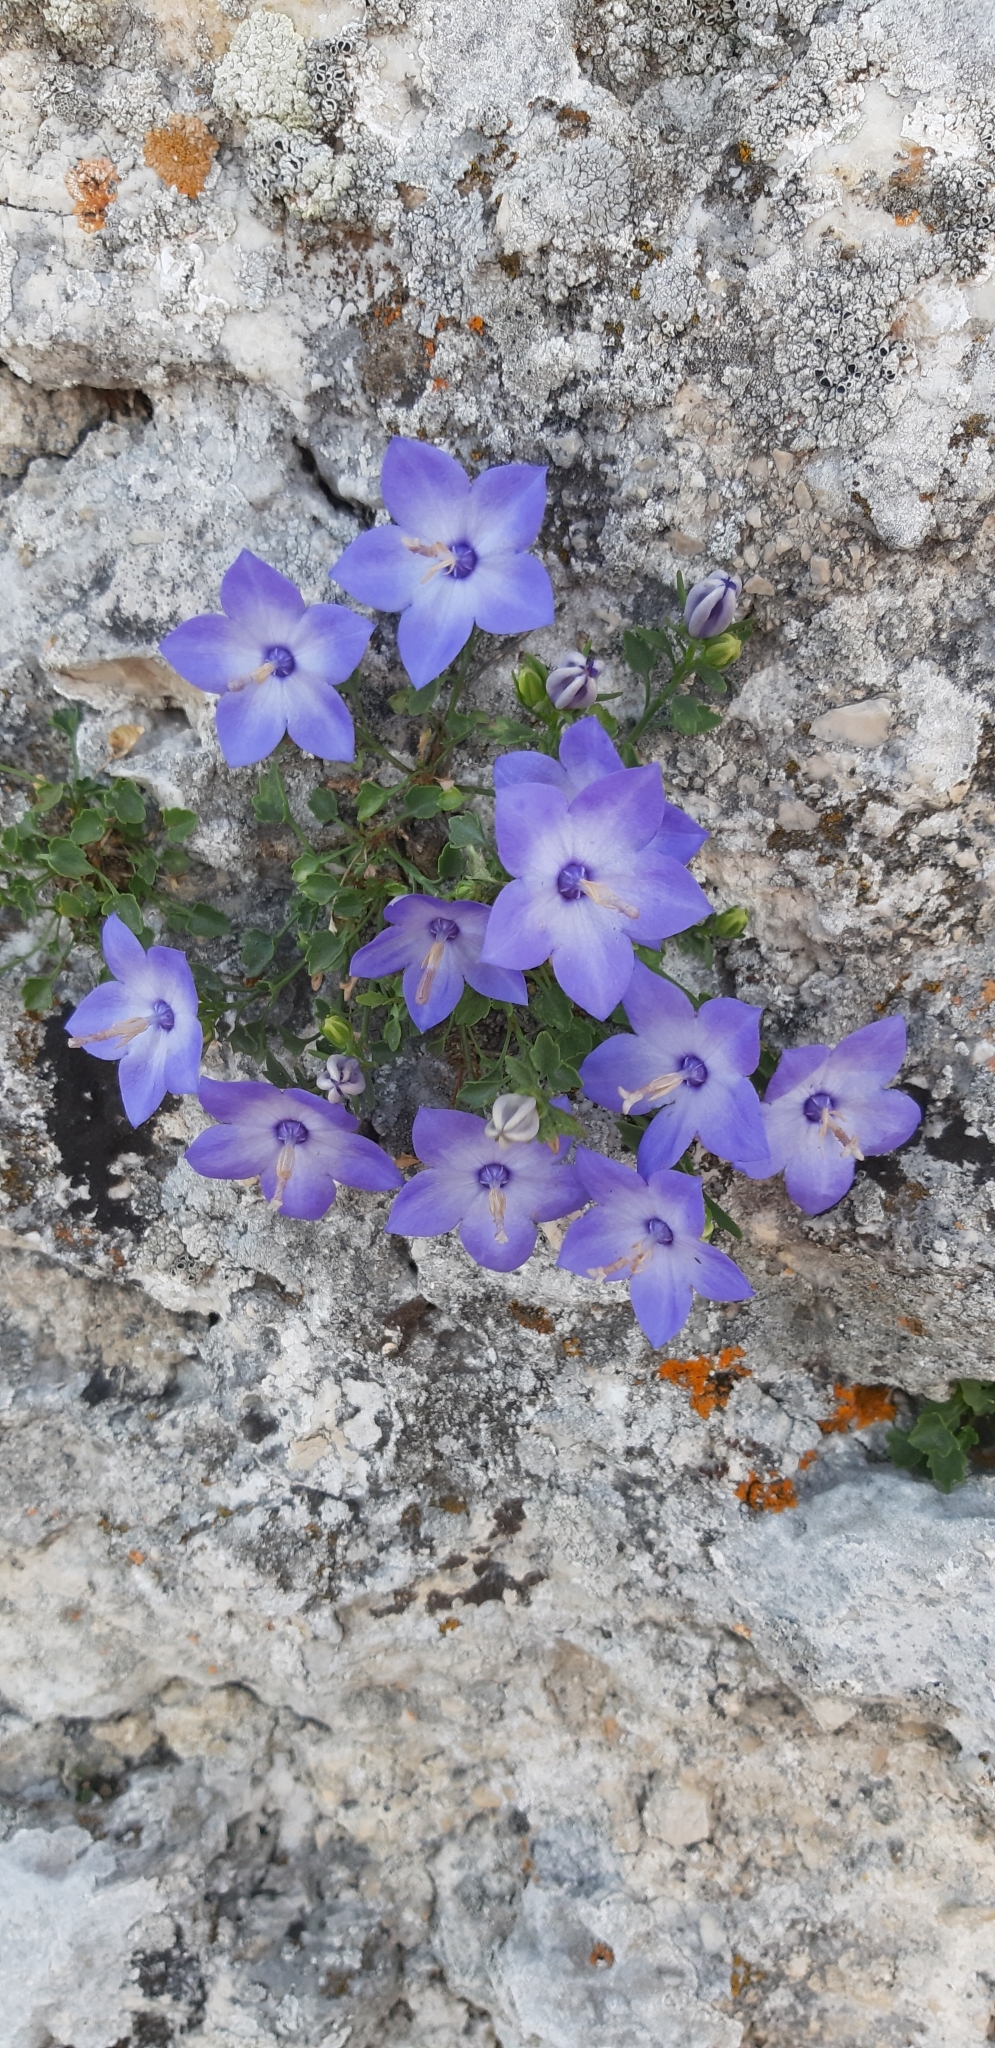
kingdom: Plantae
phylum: Tracheophyta
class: Magnoliopsida
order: Asterales
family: Campanulaceae
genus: Campanula
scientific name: Campanula fragilis
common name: Italian bellflower
